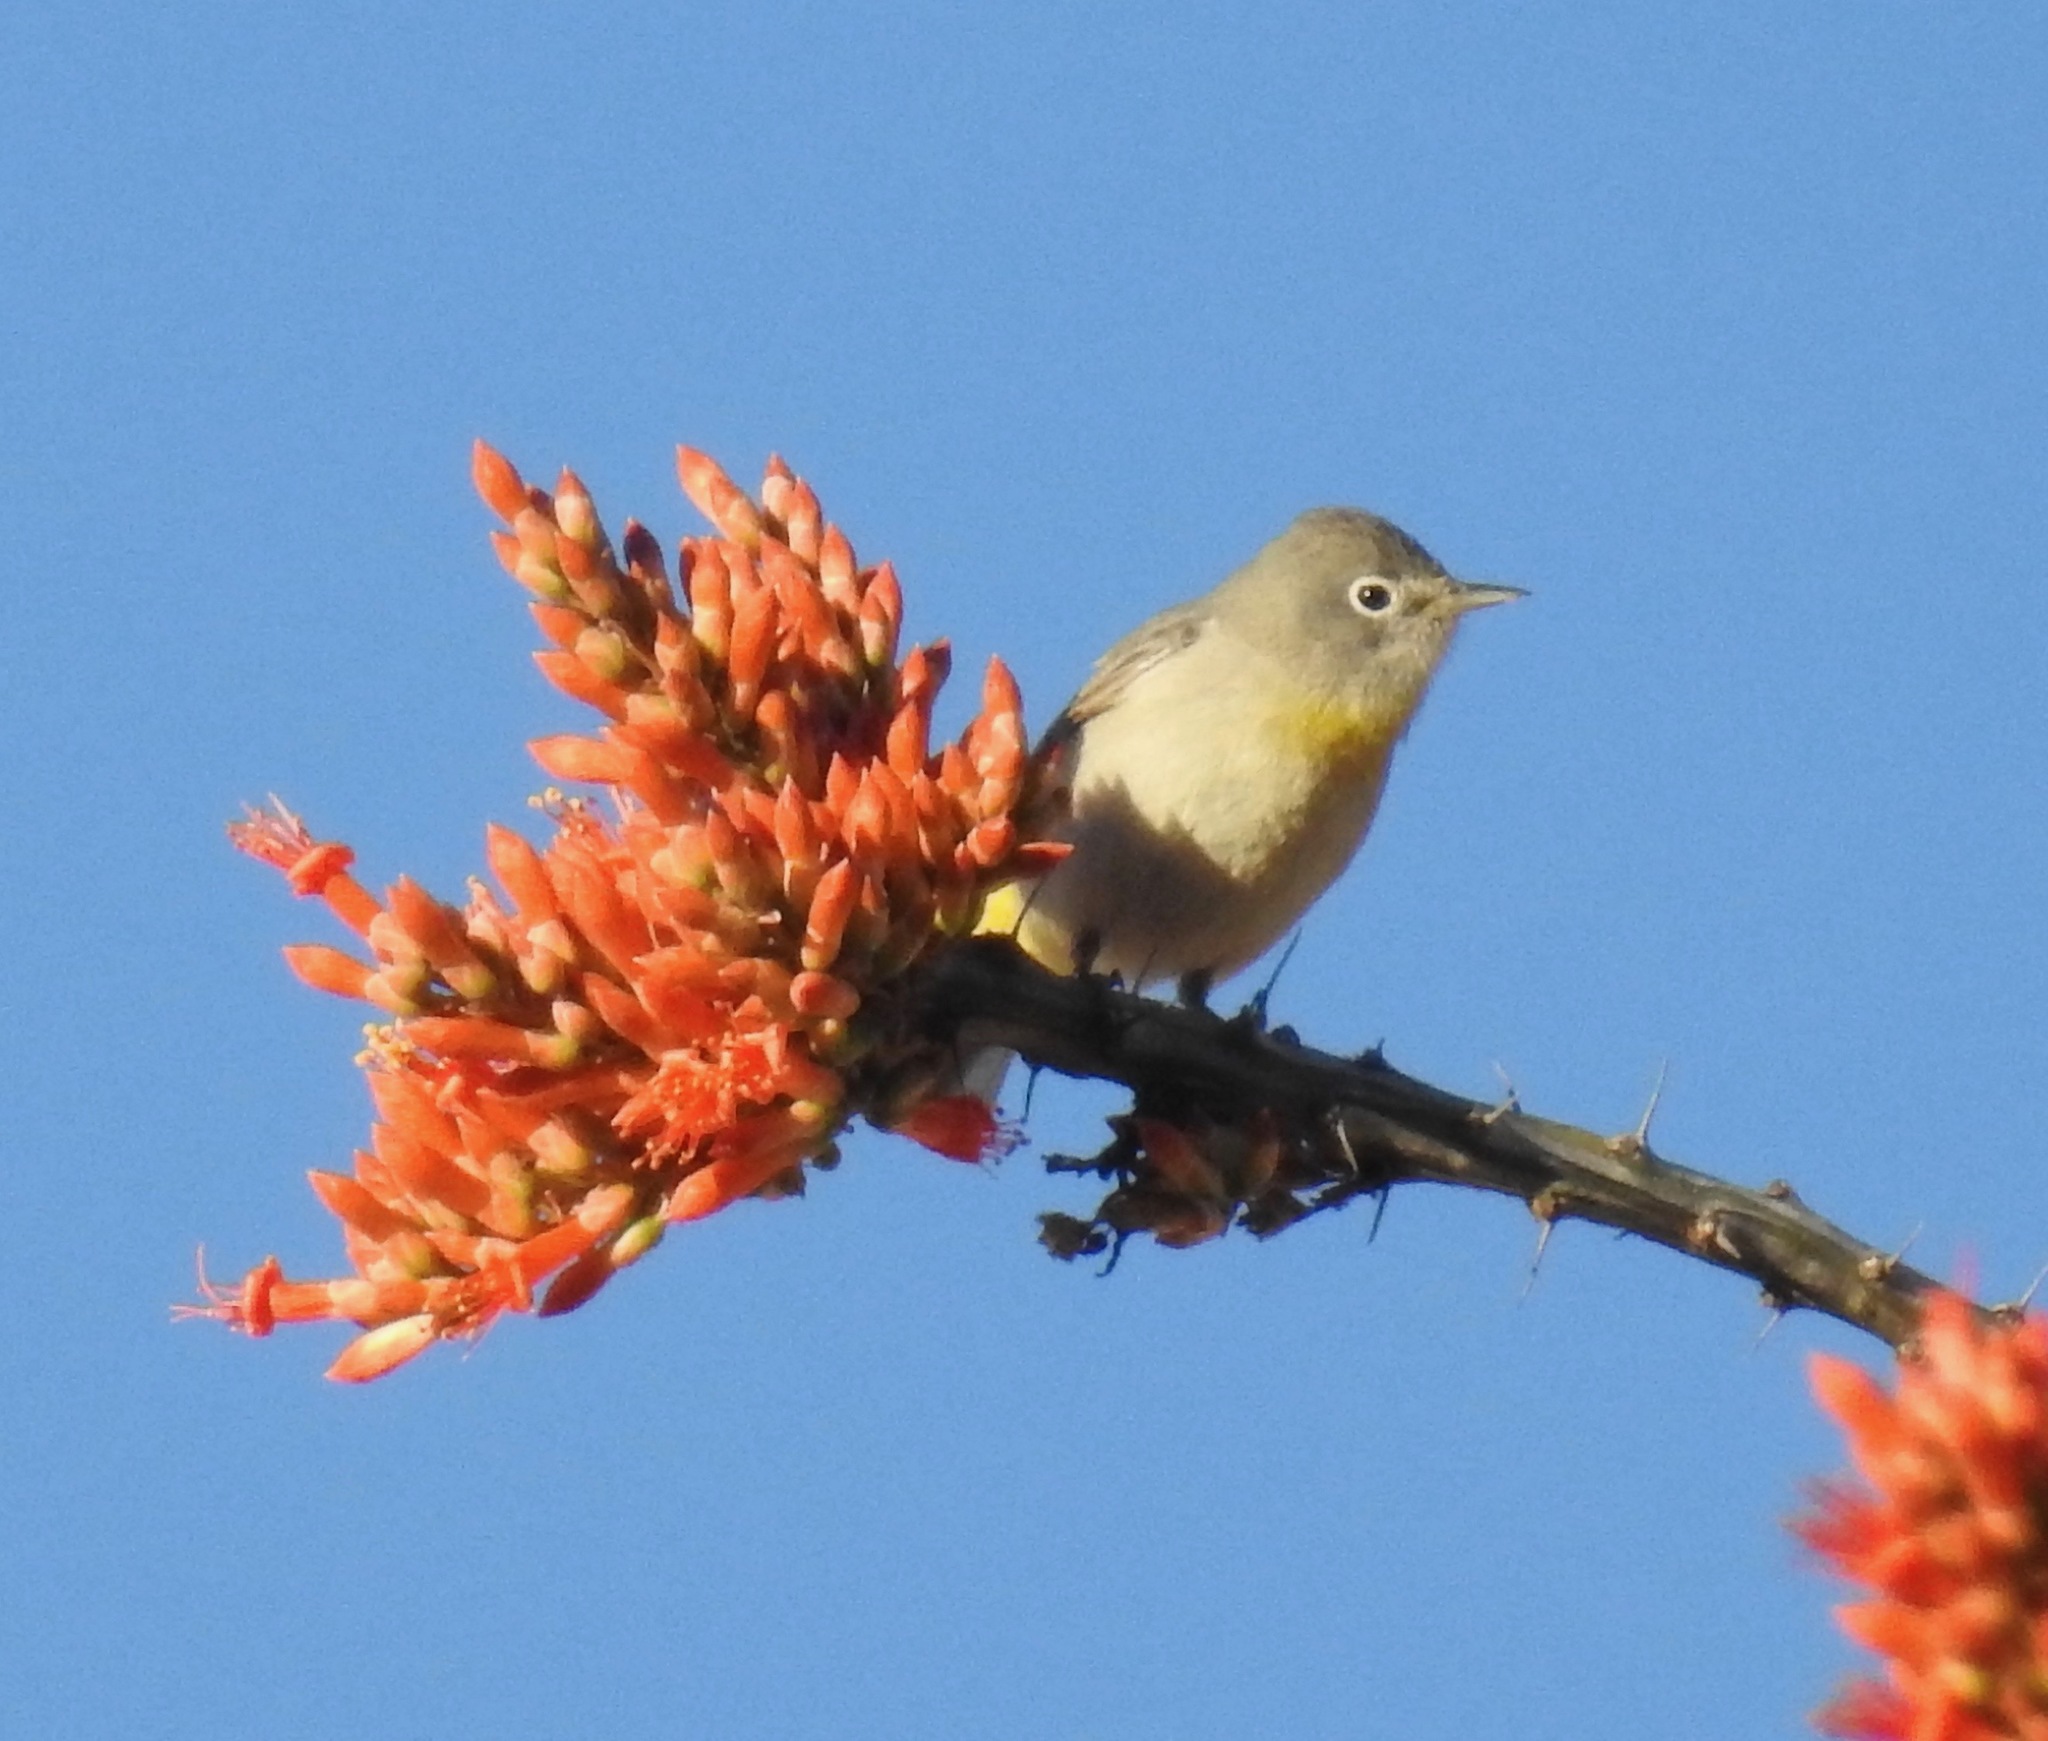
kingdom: Animalia
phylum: Chordata
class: Aves
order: Passeriformes
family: Parulidae
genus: Leiothlypis
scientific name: Leiothlypis virginiae
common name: Virginia's warbler
